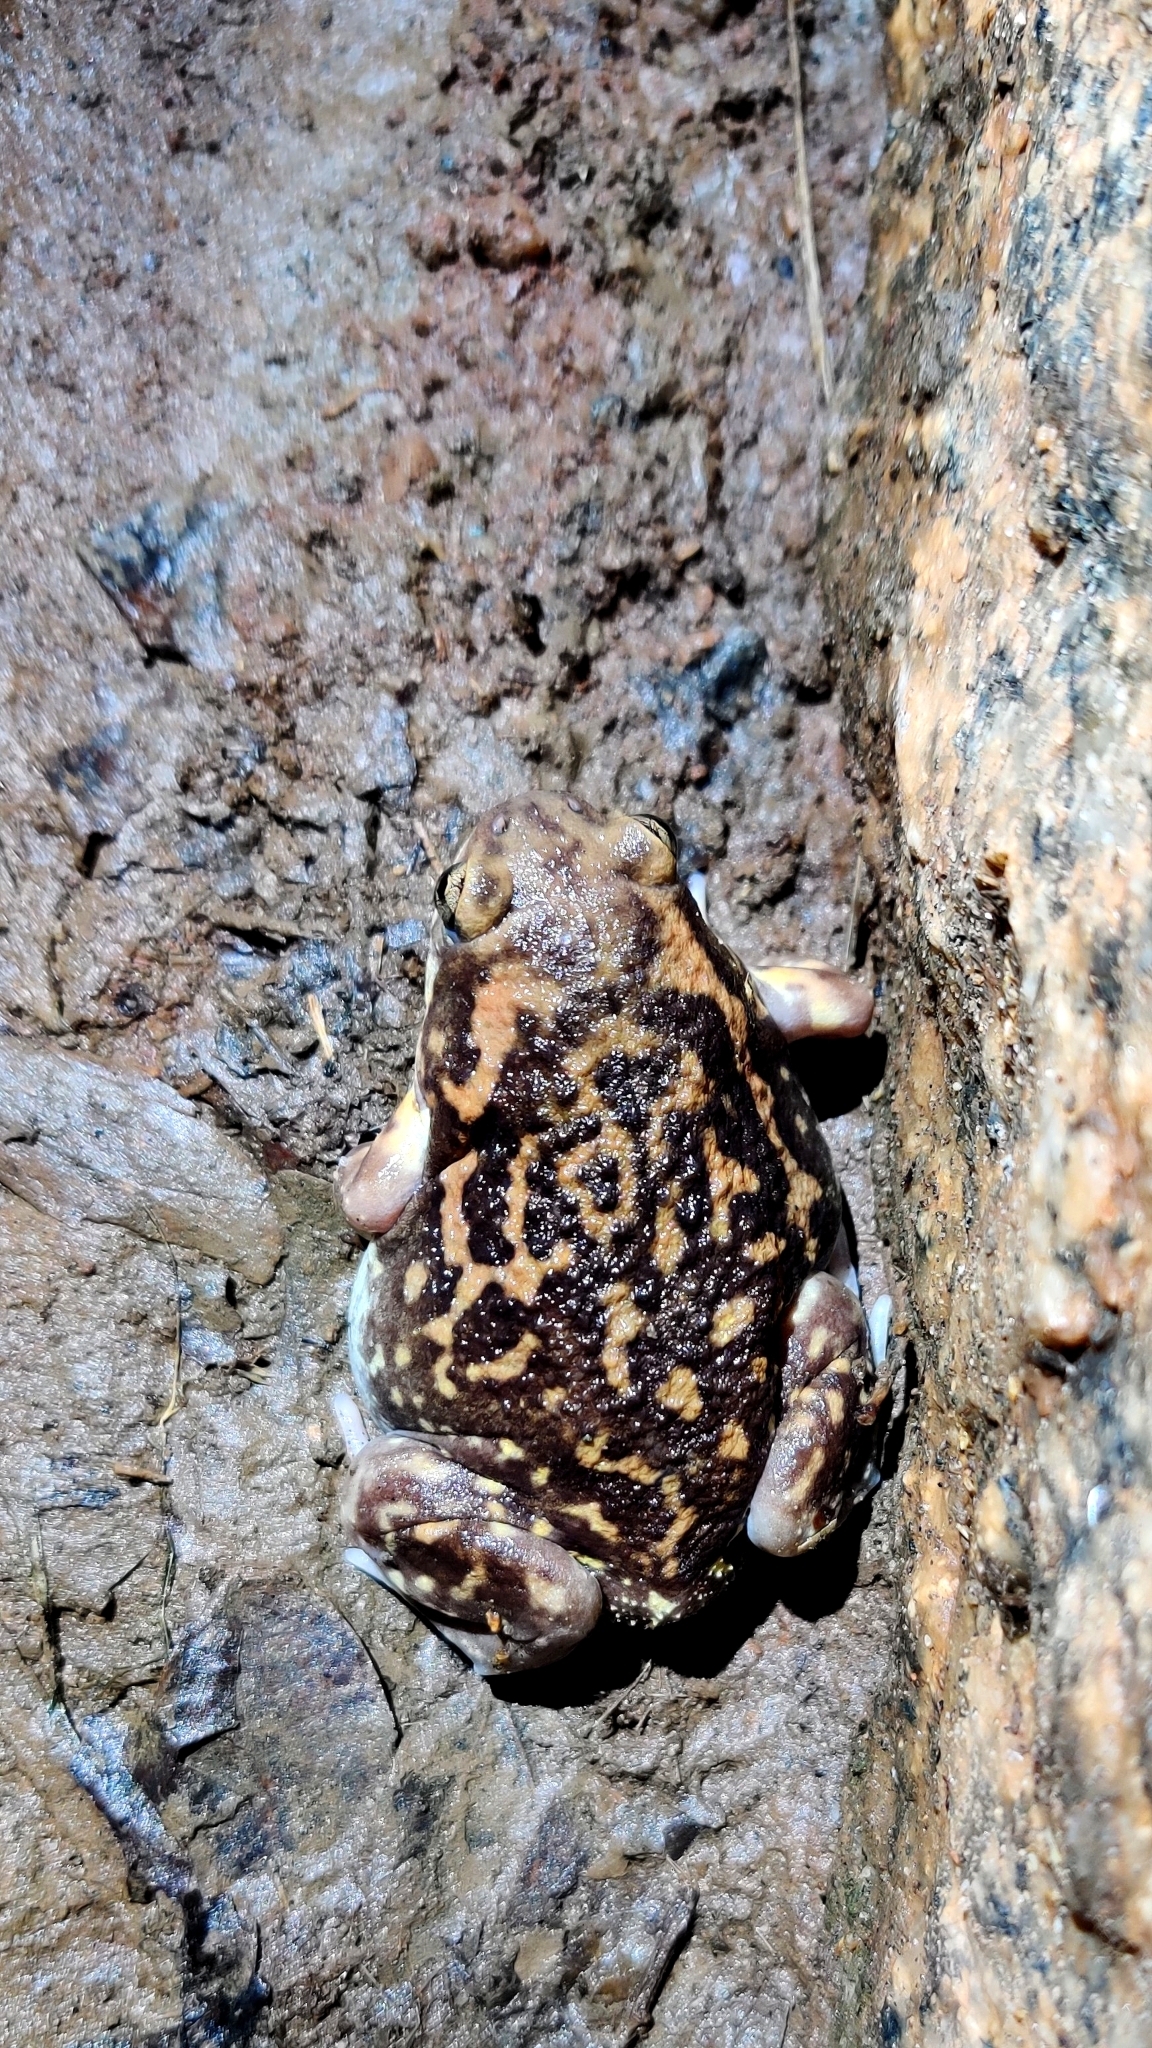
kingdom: Animalia
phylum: Chordata
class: Amphibia
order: Anura
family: Microhylidae
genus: Uperodon
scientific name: Uperodon systoma
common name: Balloon frog
